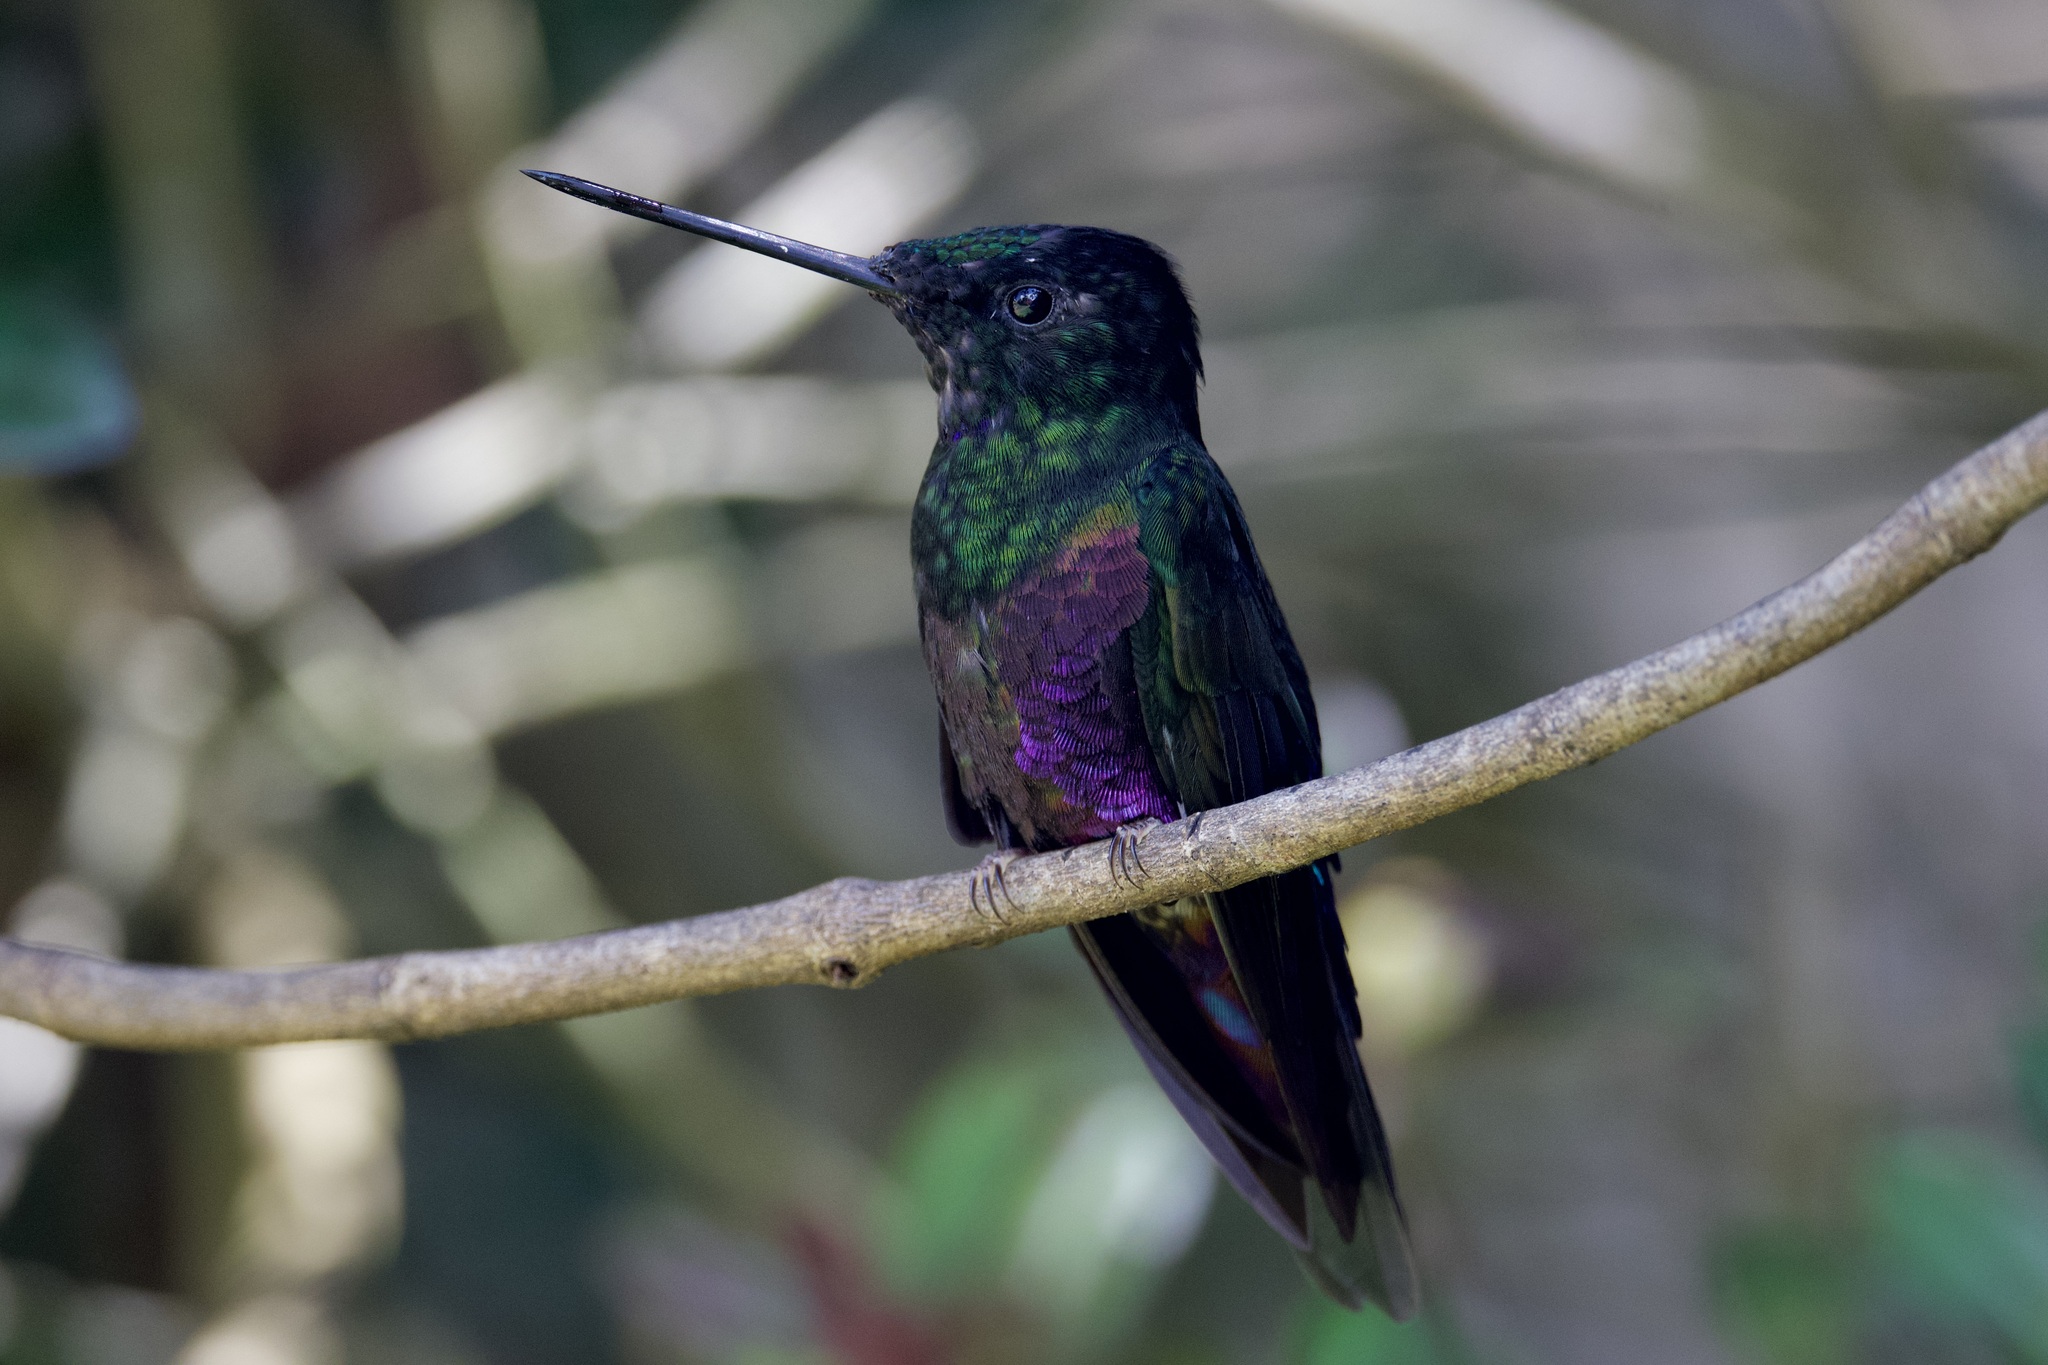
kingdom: Animalia
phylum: Chordata
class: Aves
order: Apodiformes
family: Trochilidae
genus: Coeligena
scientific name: Coeligena helianthea
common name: Blue-throated starfrontlet
